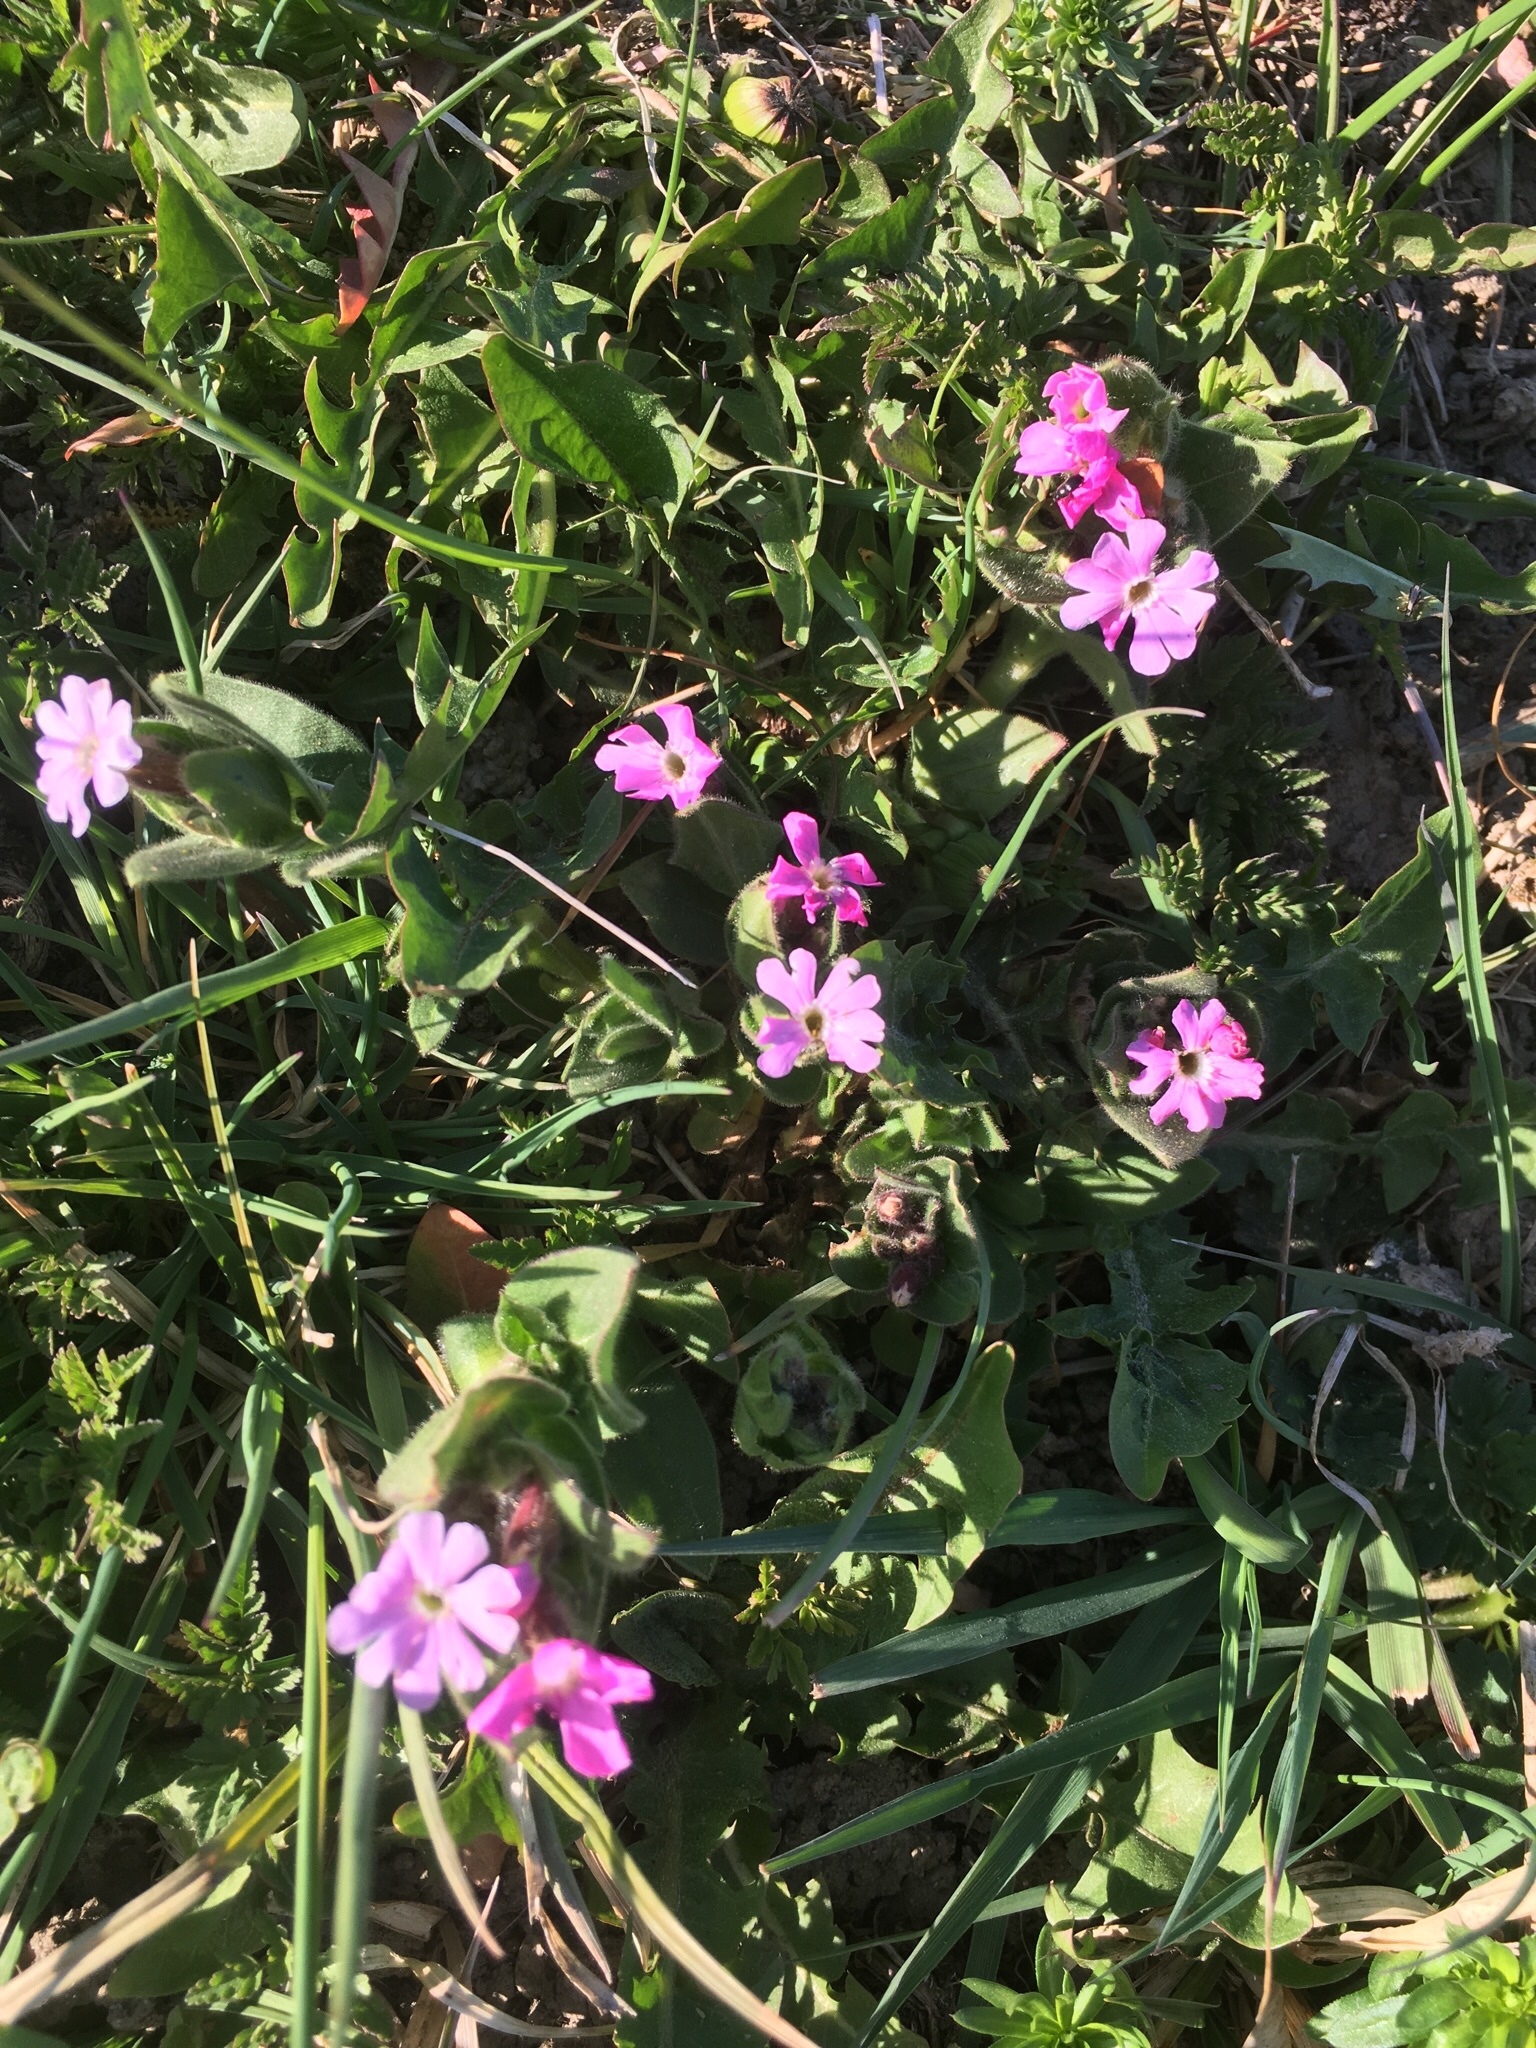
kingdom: Plantae
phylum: Tracheophyta
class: Magnoliopsida
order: Caryophyllales
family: Caryophyllaceae
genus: Silene
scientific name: Silene dioica
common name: Red campion
